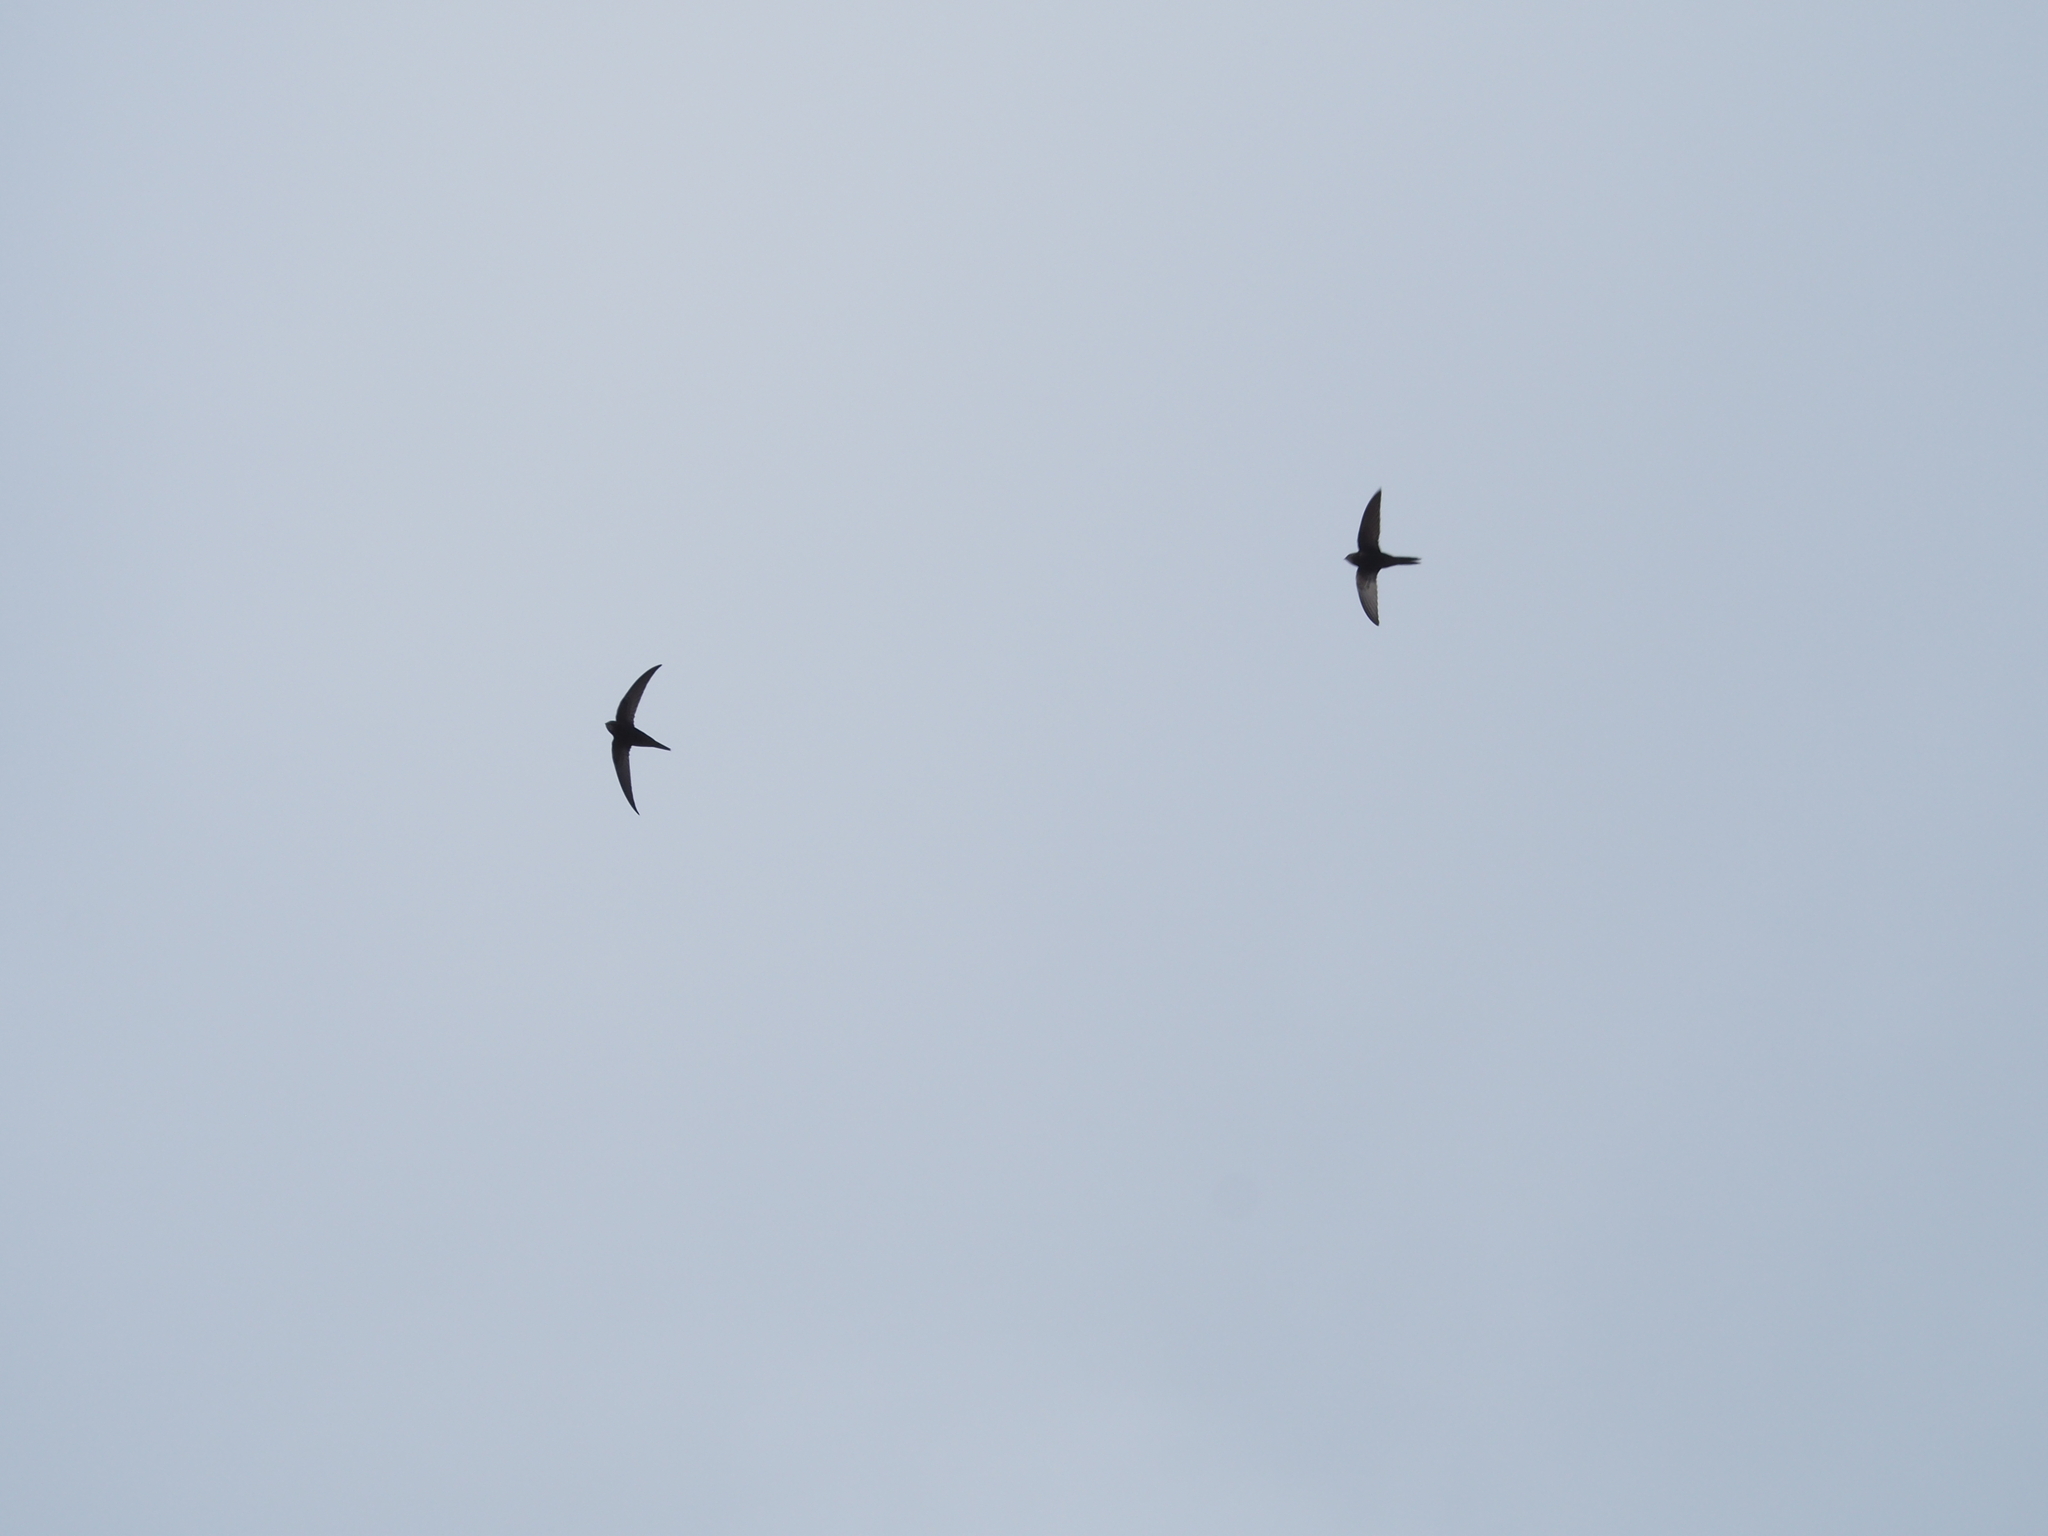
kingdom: Animalia
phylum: Chordata
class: Aves
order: Apodiformes
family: Apodidae
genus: Apus
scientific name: Apus apus
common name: Common swift
